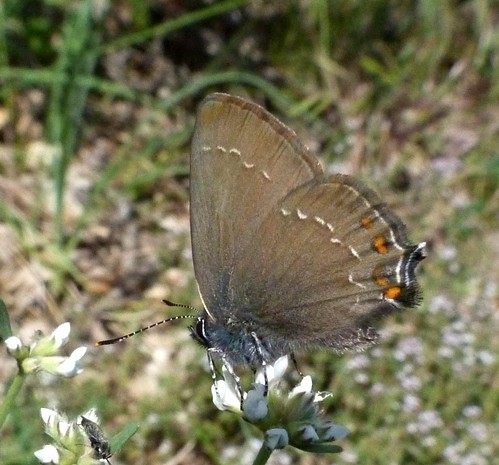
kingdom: Animalia
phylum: Arthropoda
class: Insecta
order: Lepidoptera
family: Lycaenidae
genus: Nordmannia
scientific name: Nordmannia ilicis
